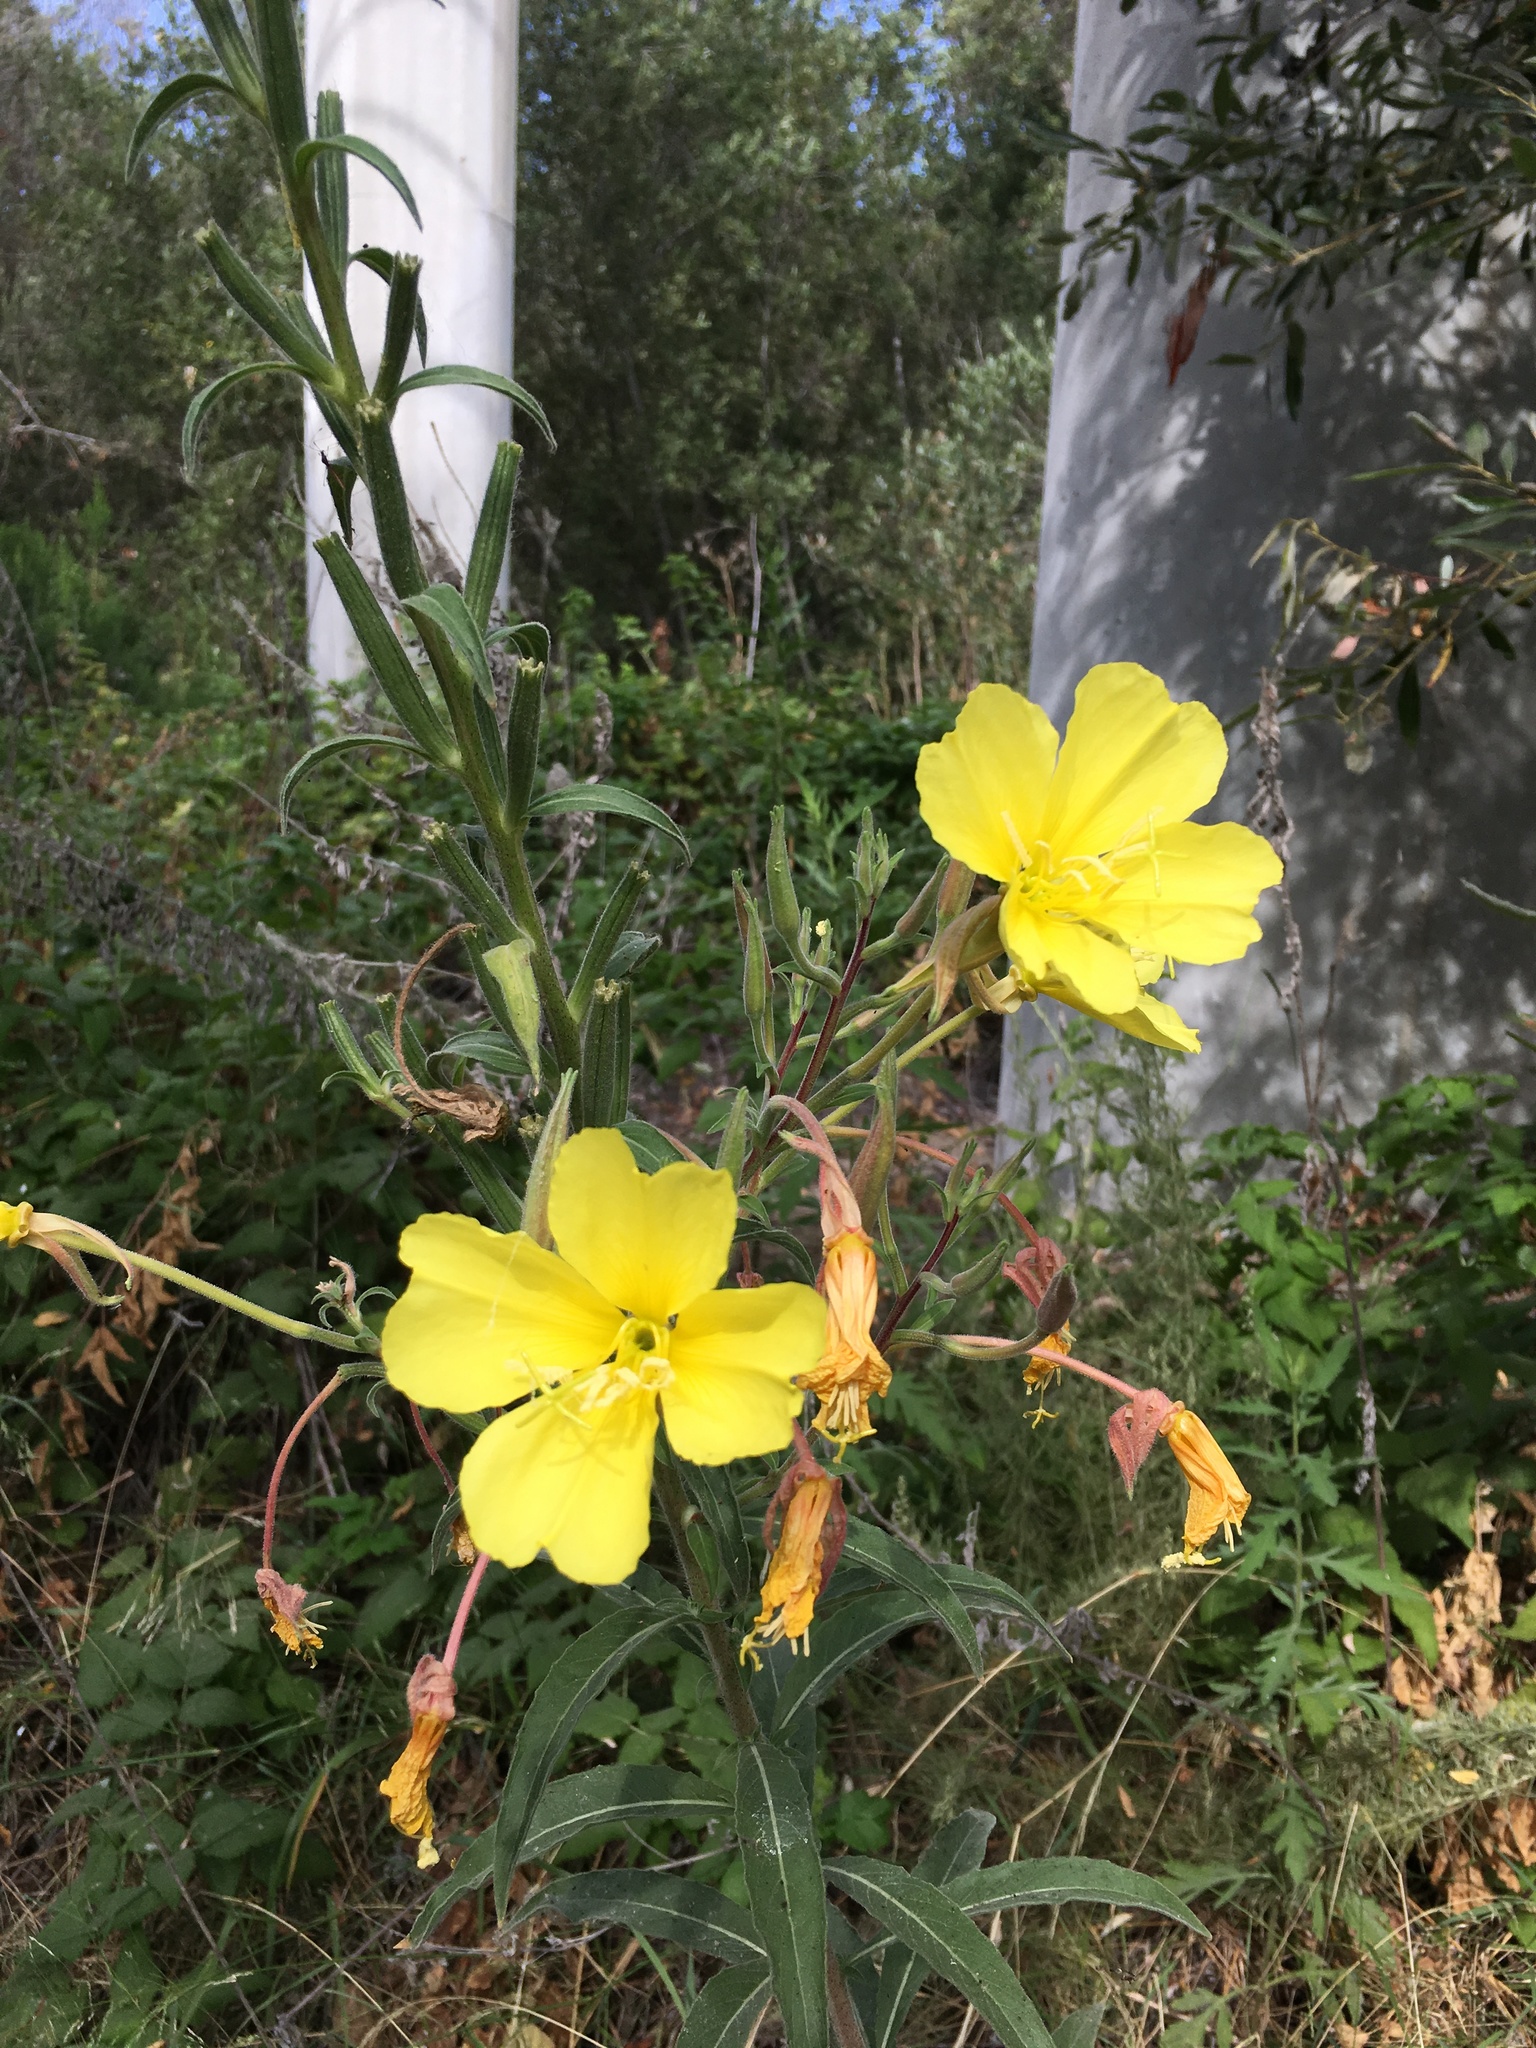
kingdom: Plantae
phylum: Tracheophyta
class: Magnoliopsida
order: Myrtales
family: Onagraceae
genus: Oenothera
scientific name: Oenothera elata
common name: Hooker's evening-primrose
